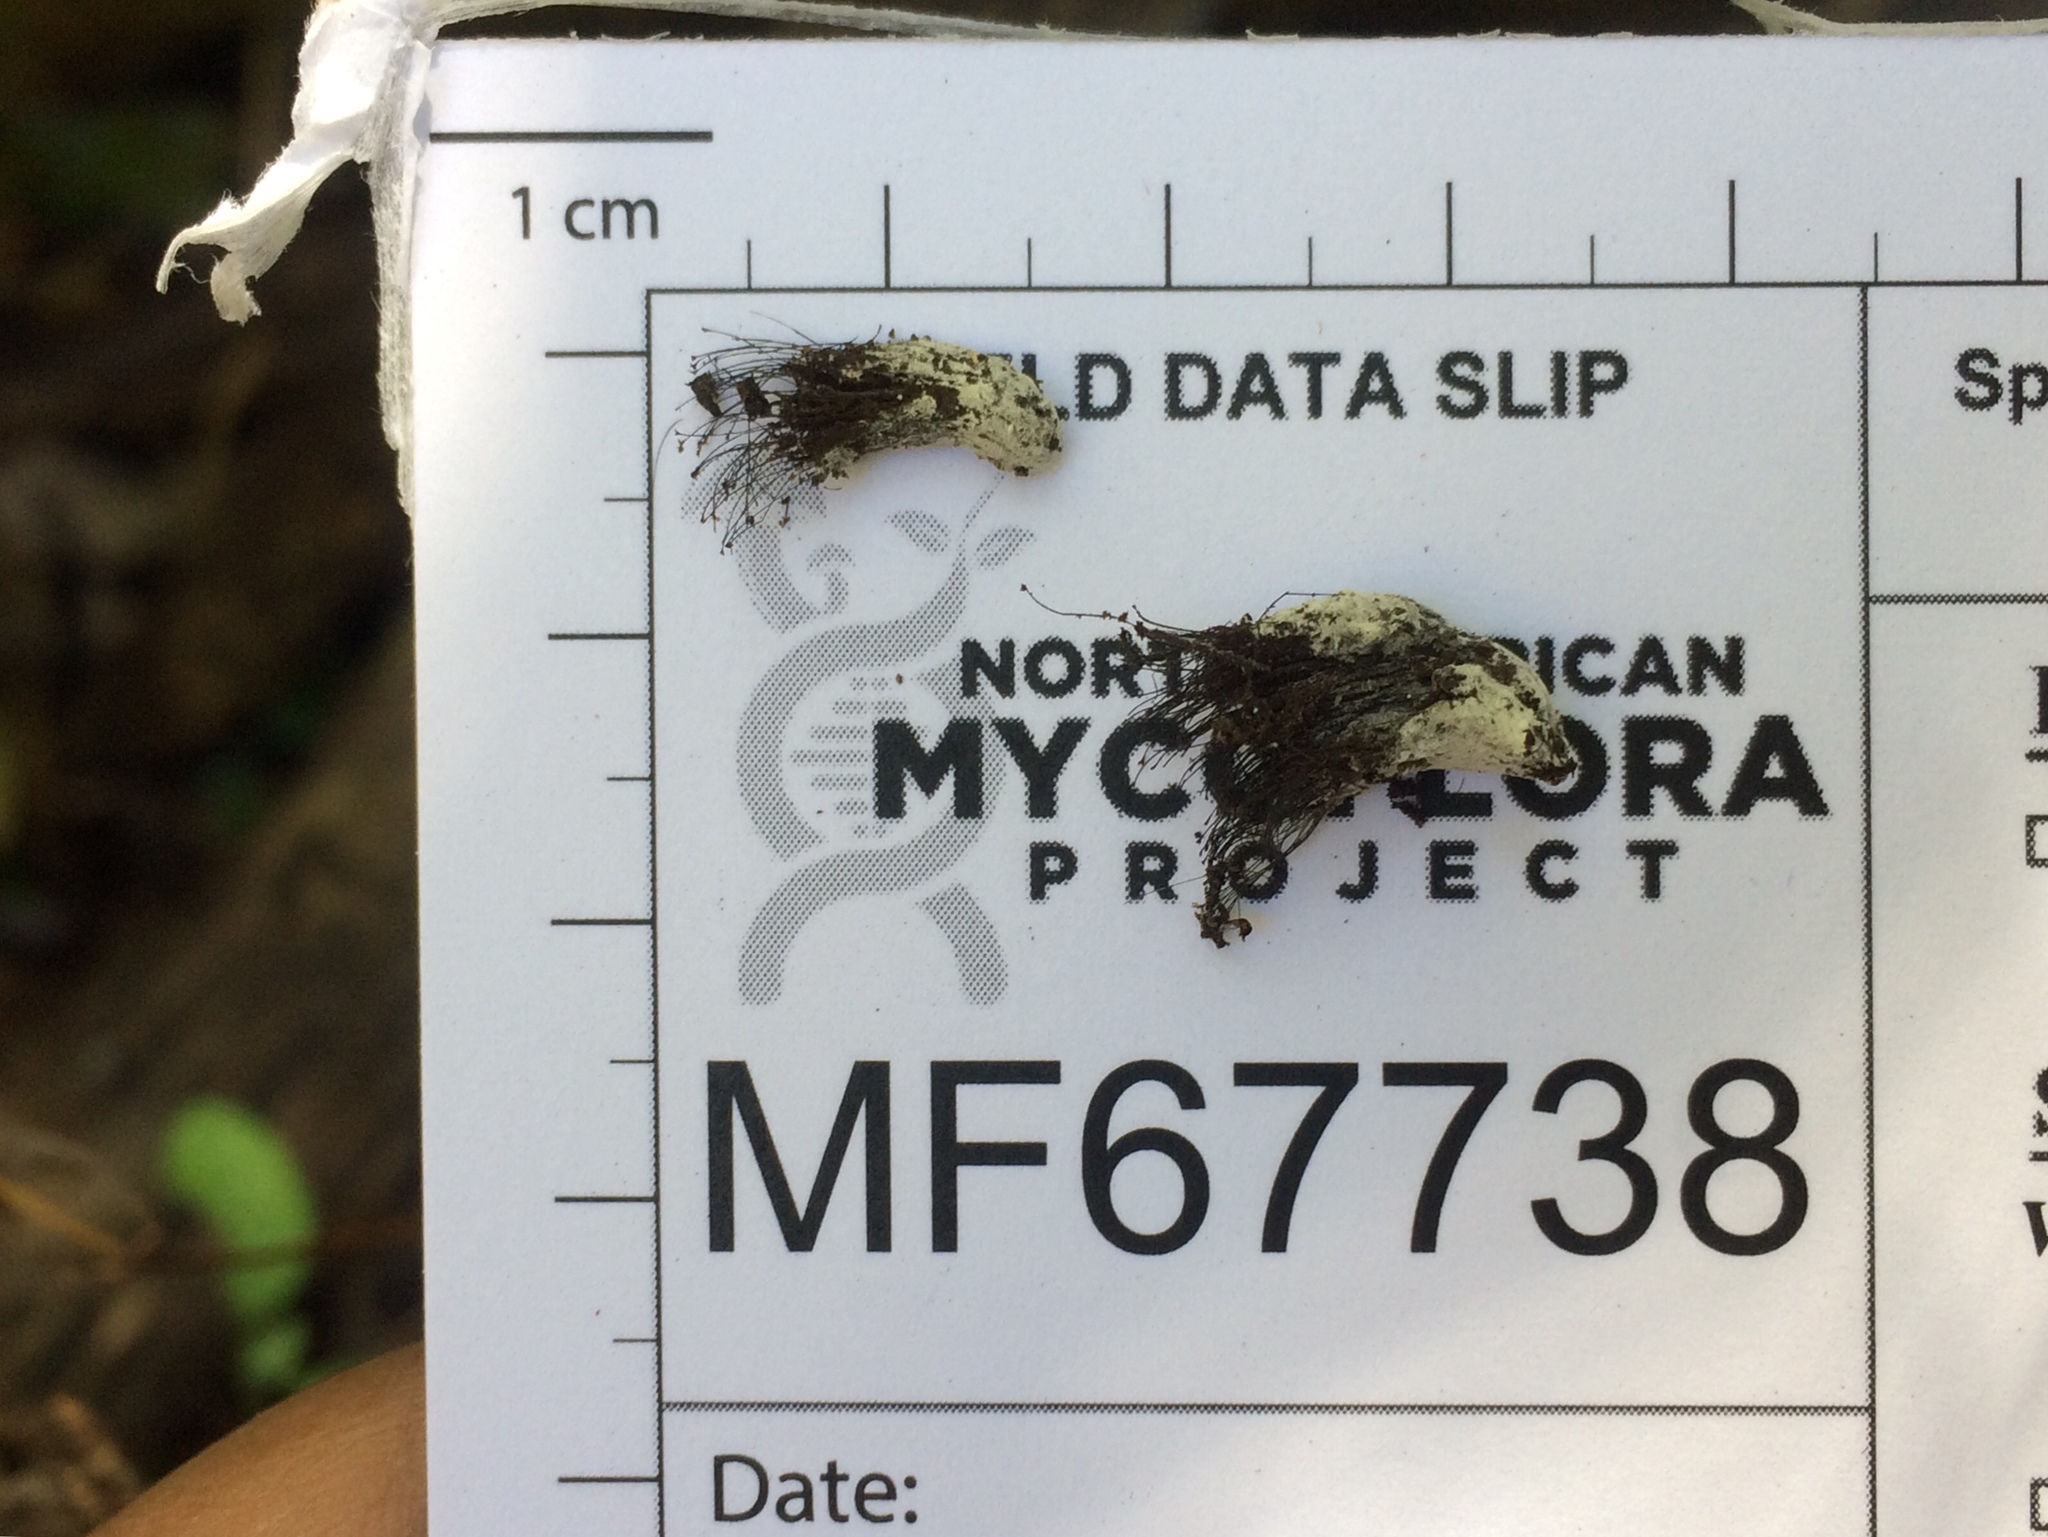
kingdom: Fungi
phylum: Ascomycota
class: Sordariomycetes
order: Hypocreales
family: Bionectriaceae
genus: Nectriopsis
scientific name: Nectriopsis rexiana
